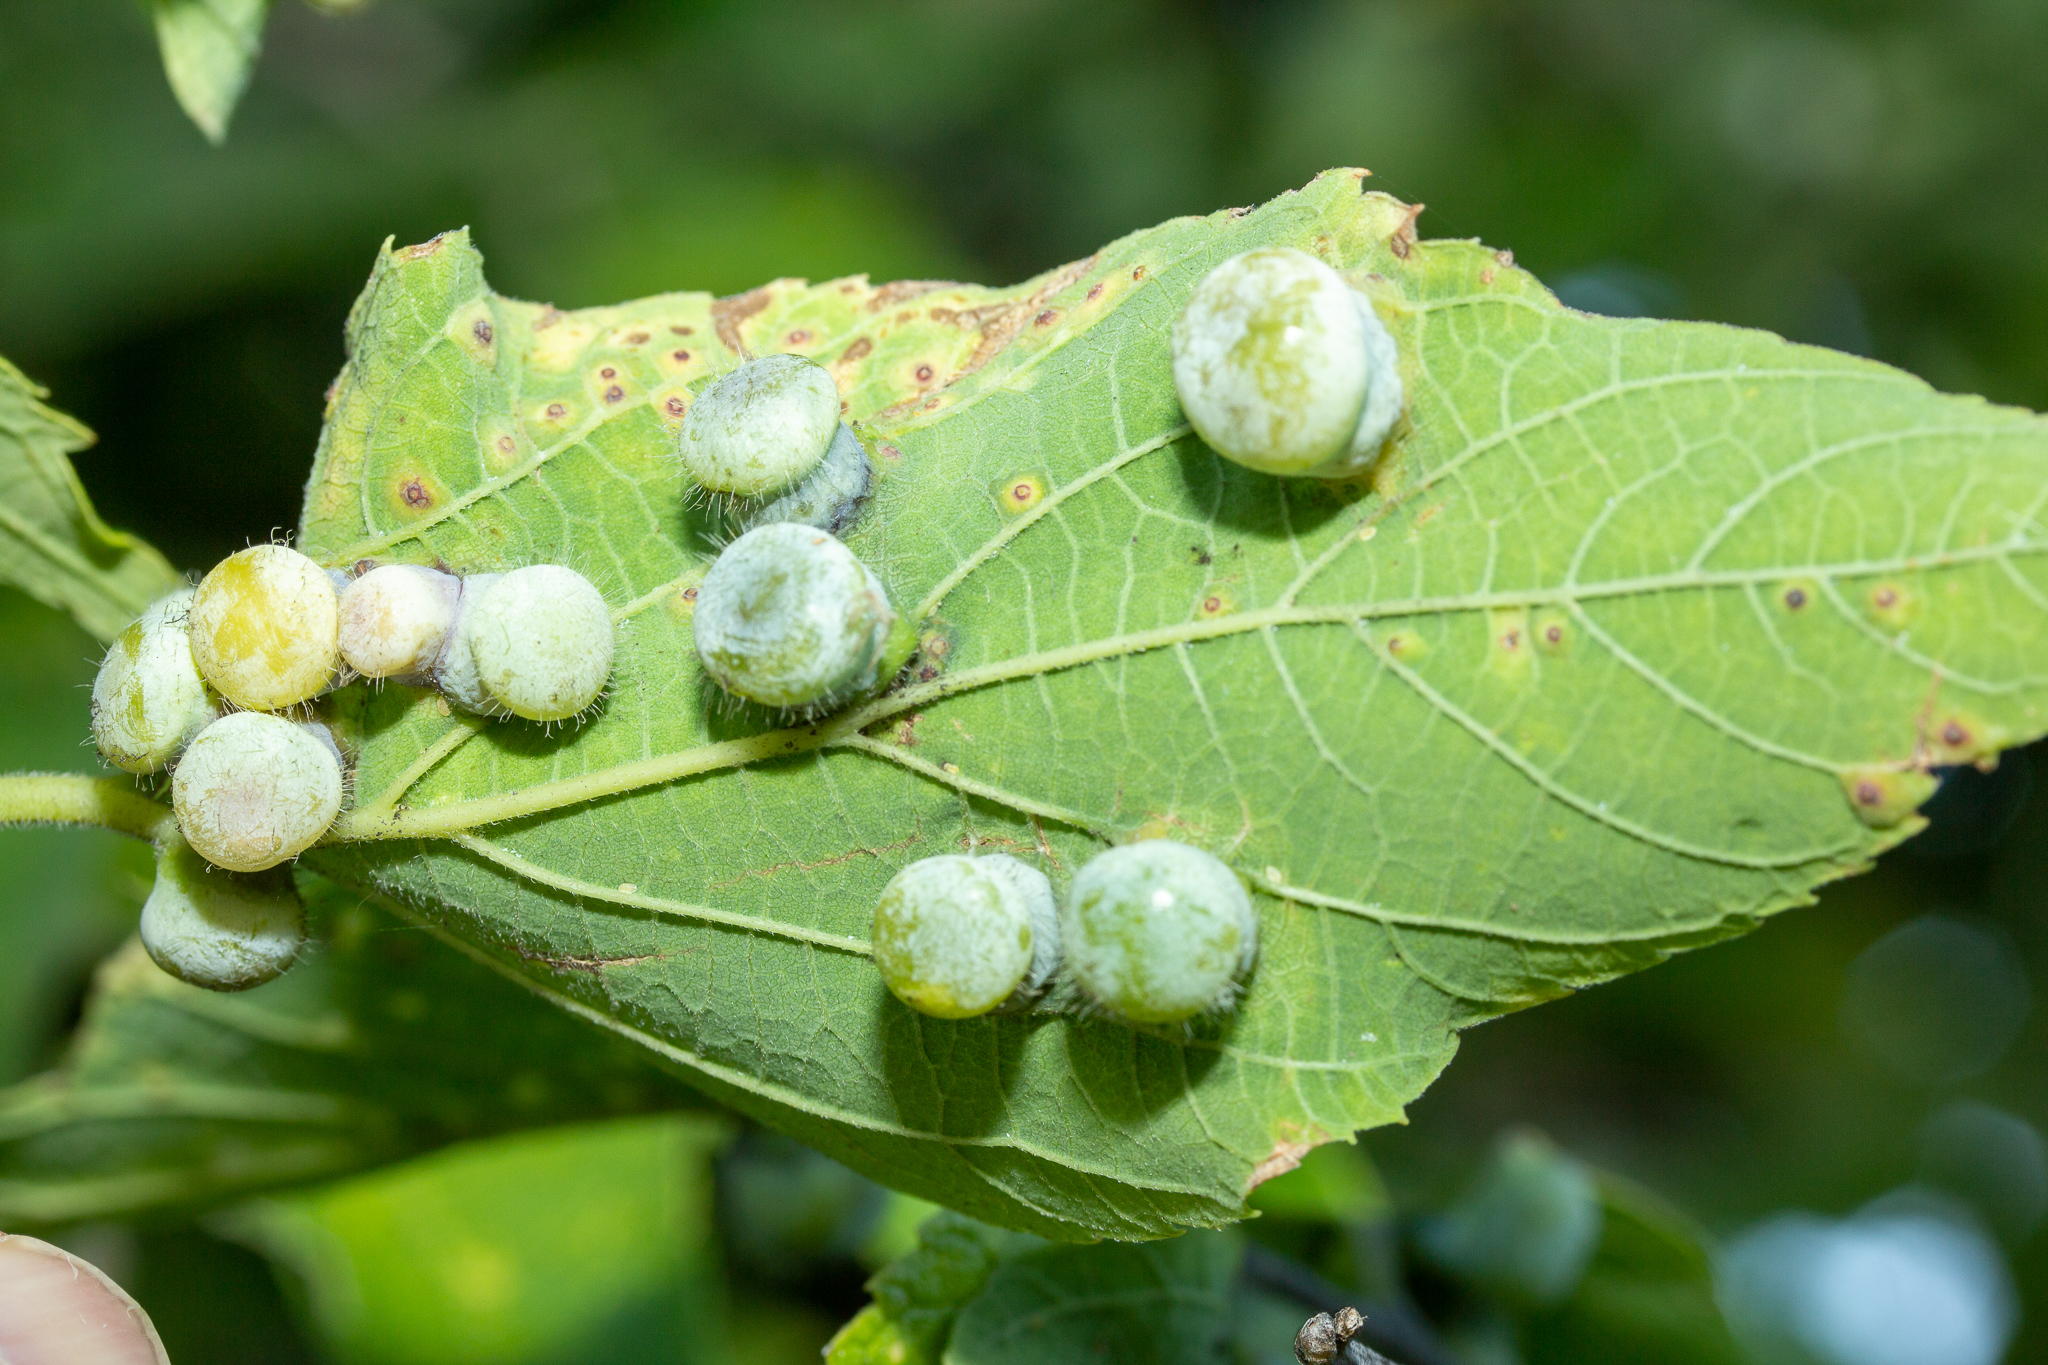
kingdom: Animalia
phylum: Arthropoda
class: Insecta
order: Hemiptera
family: Aphalaridae
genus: Pachypsylla
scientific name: Pachypsylla celtidismamma
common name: Hackberry nipplegall psyllid
